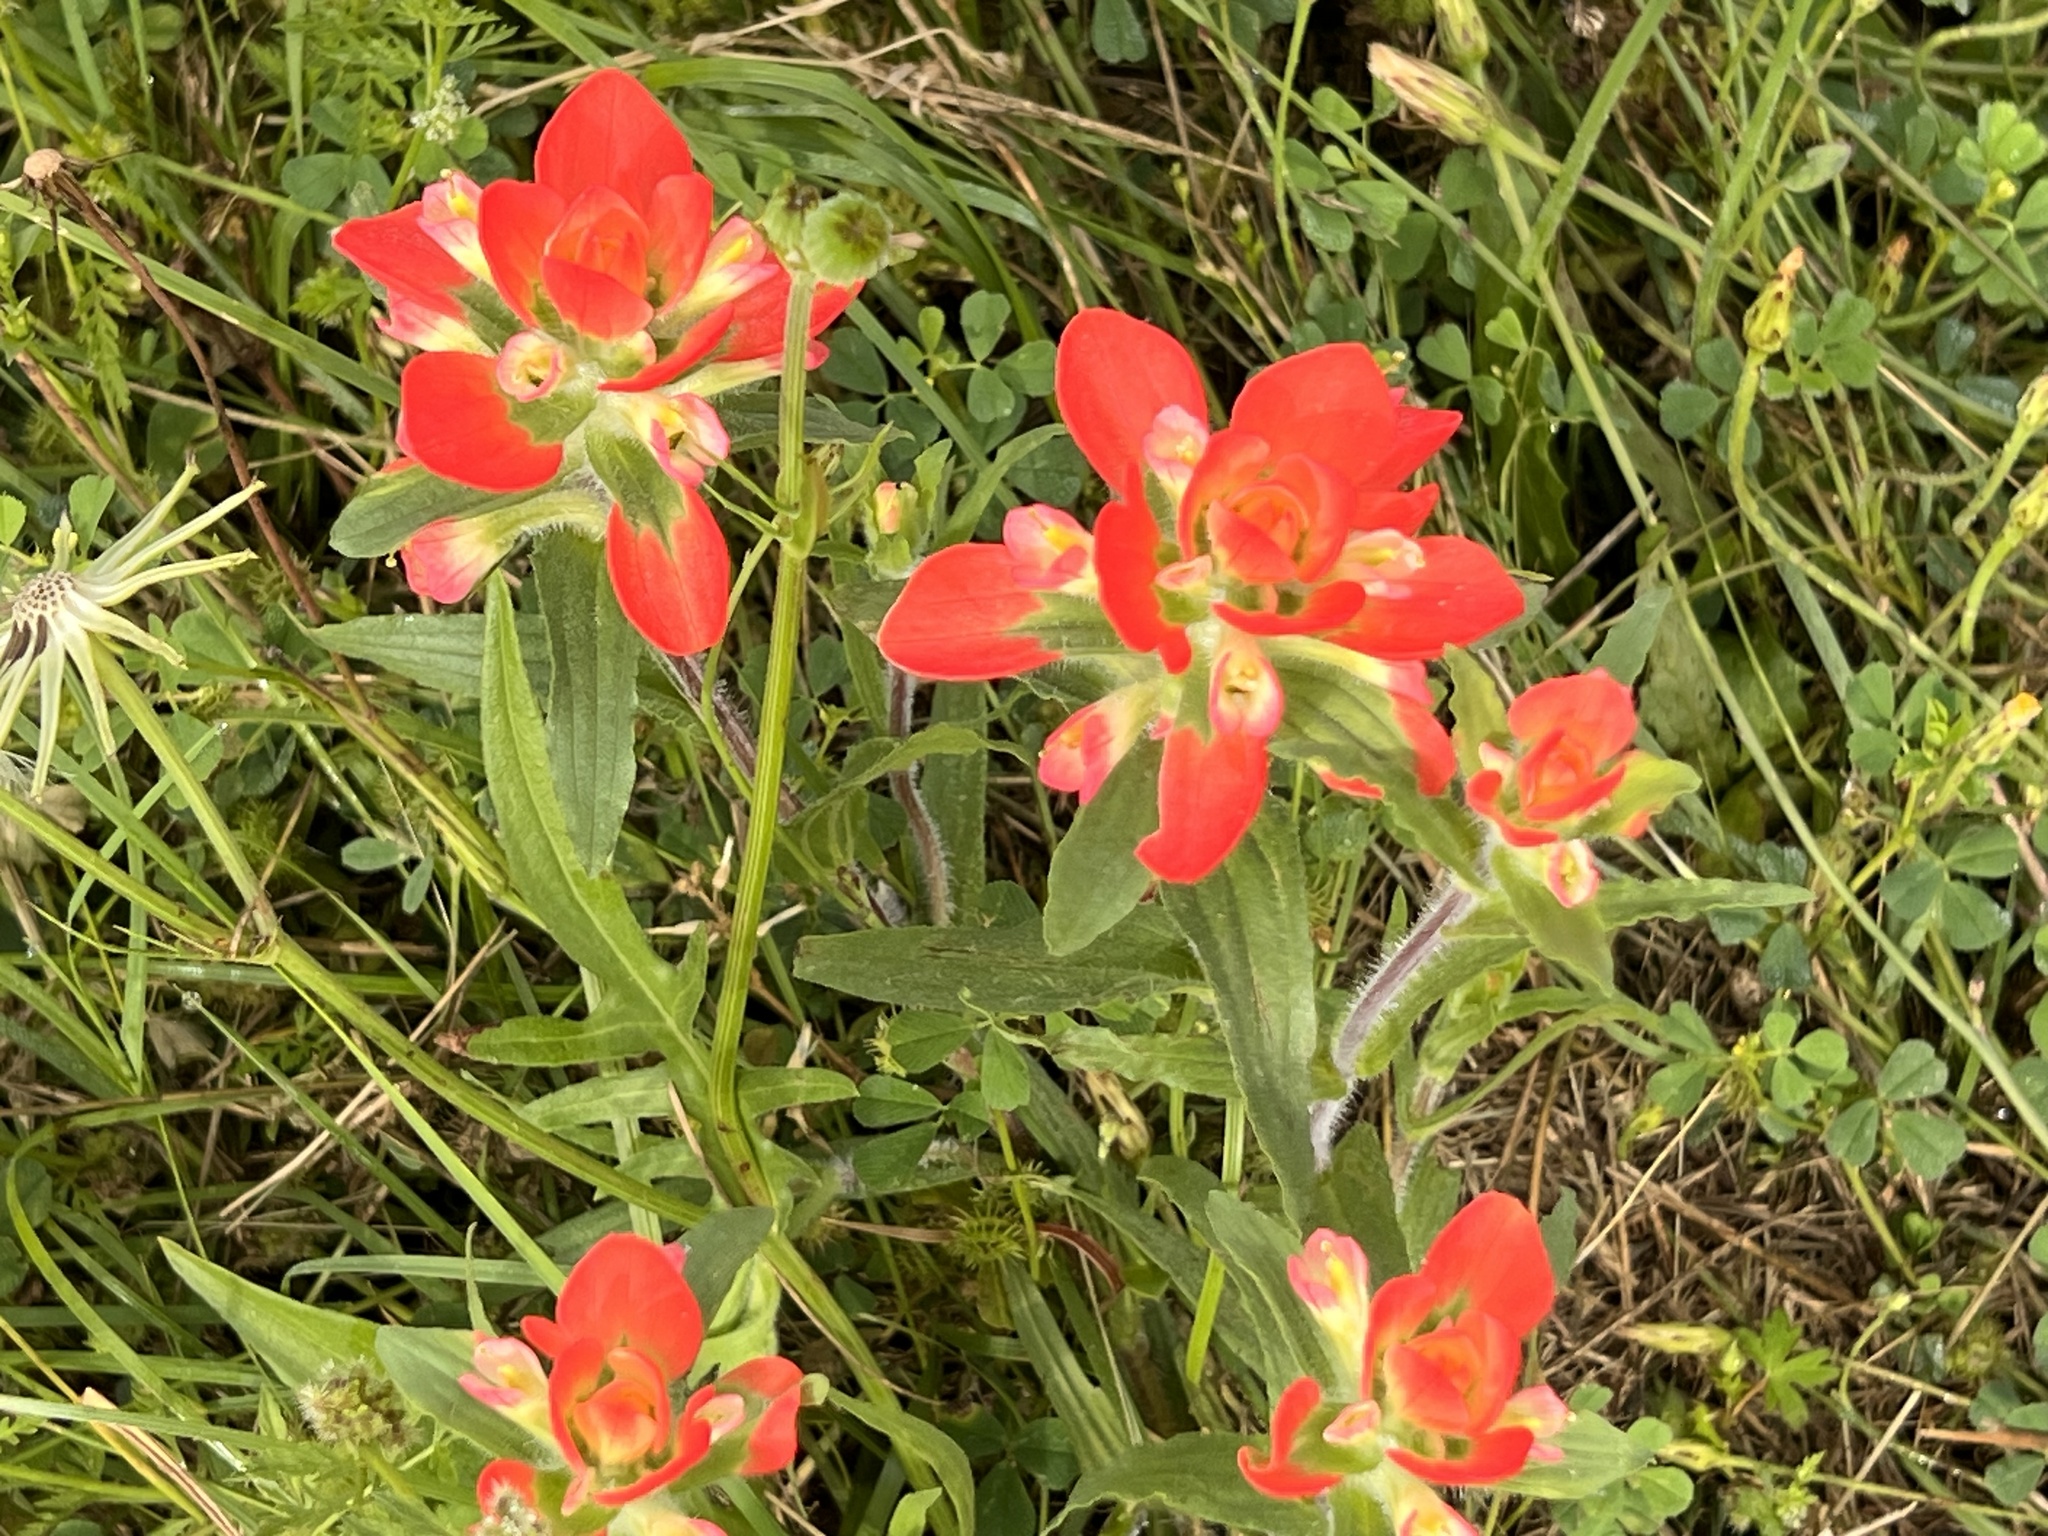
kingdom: Plantae
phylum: Tracheophyta
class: Magnoliopsida
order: Lamiales
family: Orobanchaceae
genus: Castilleja
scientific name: Castilleja indivisa
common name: Texas paintbrush
